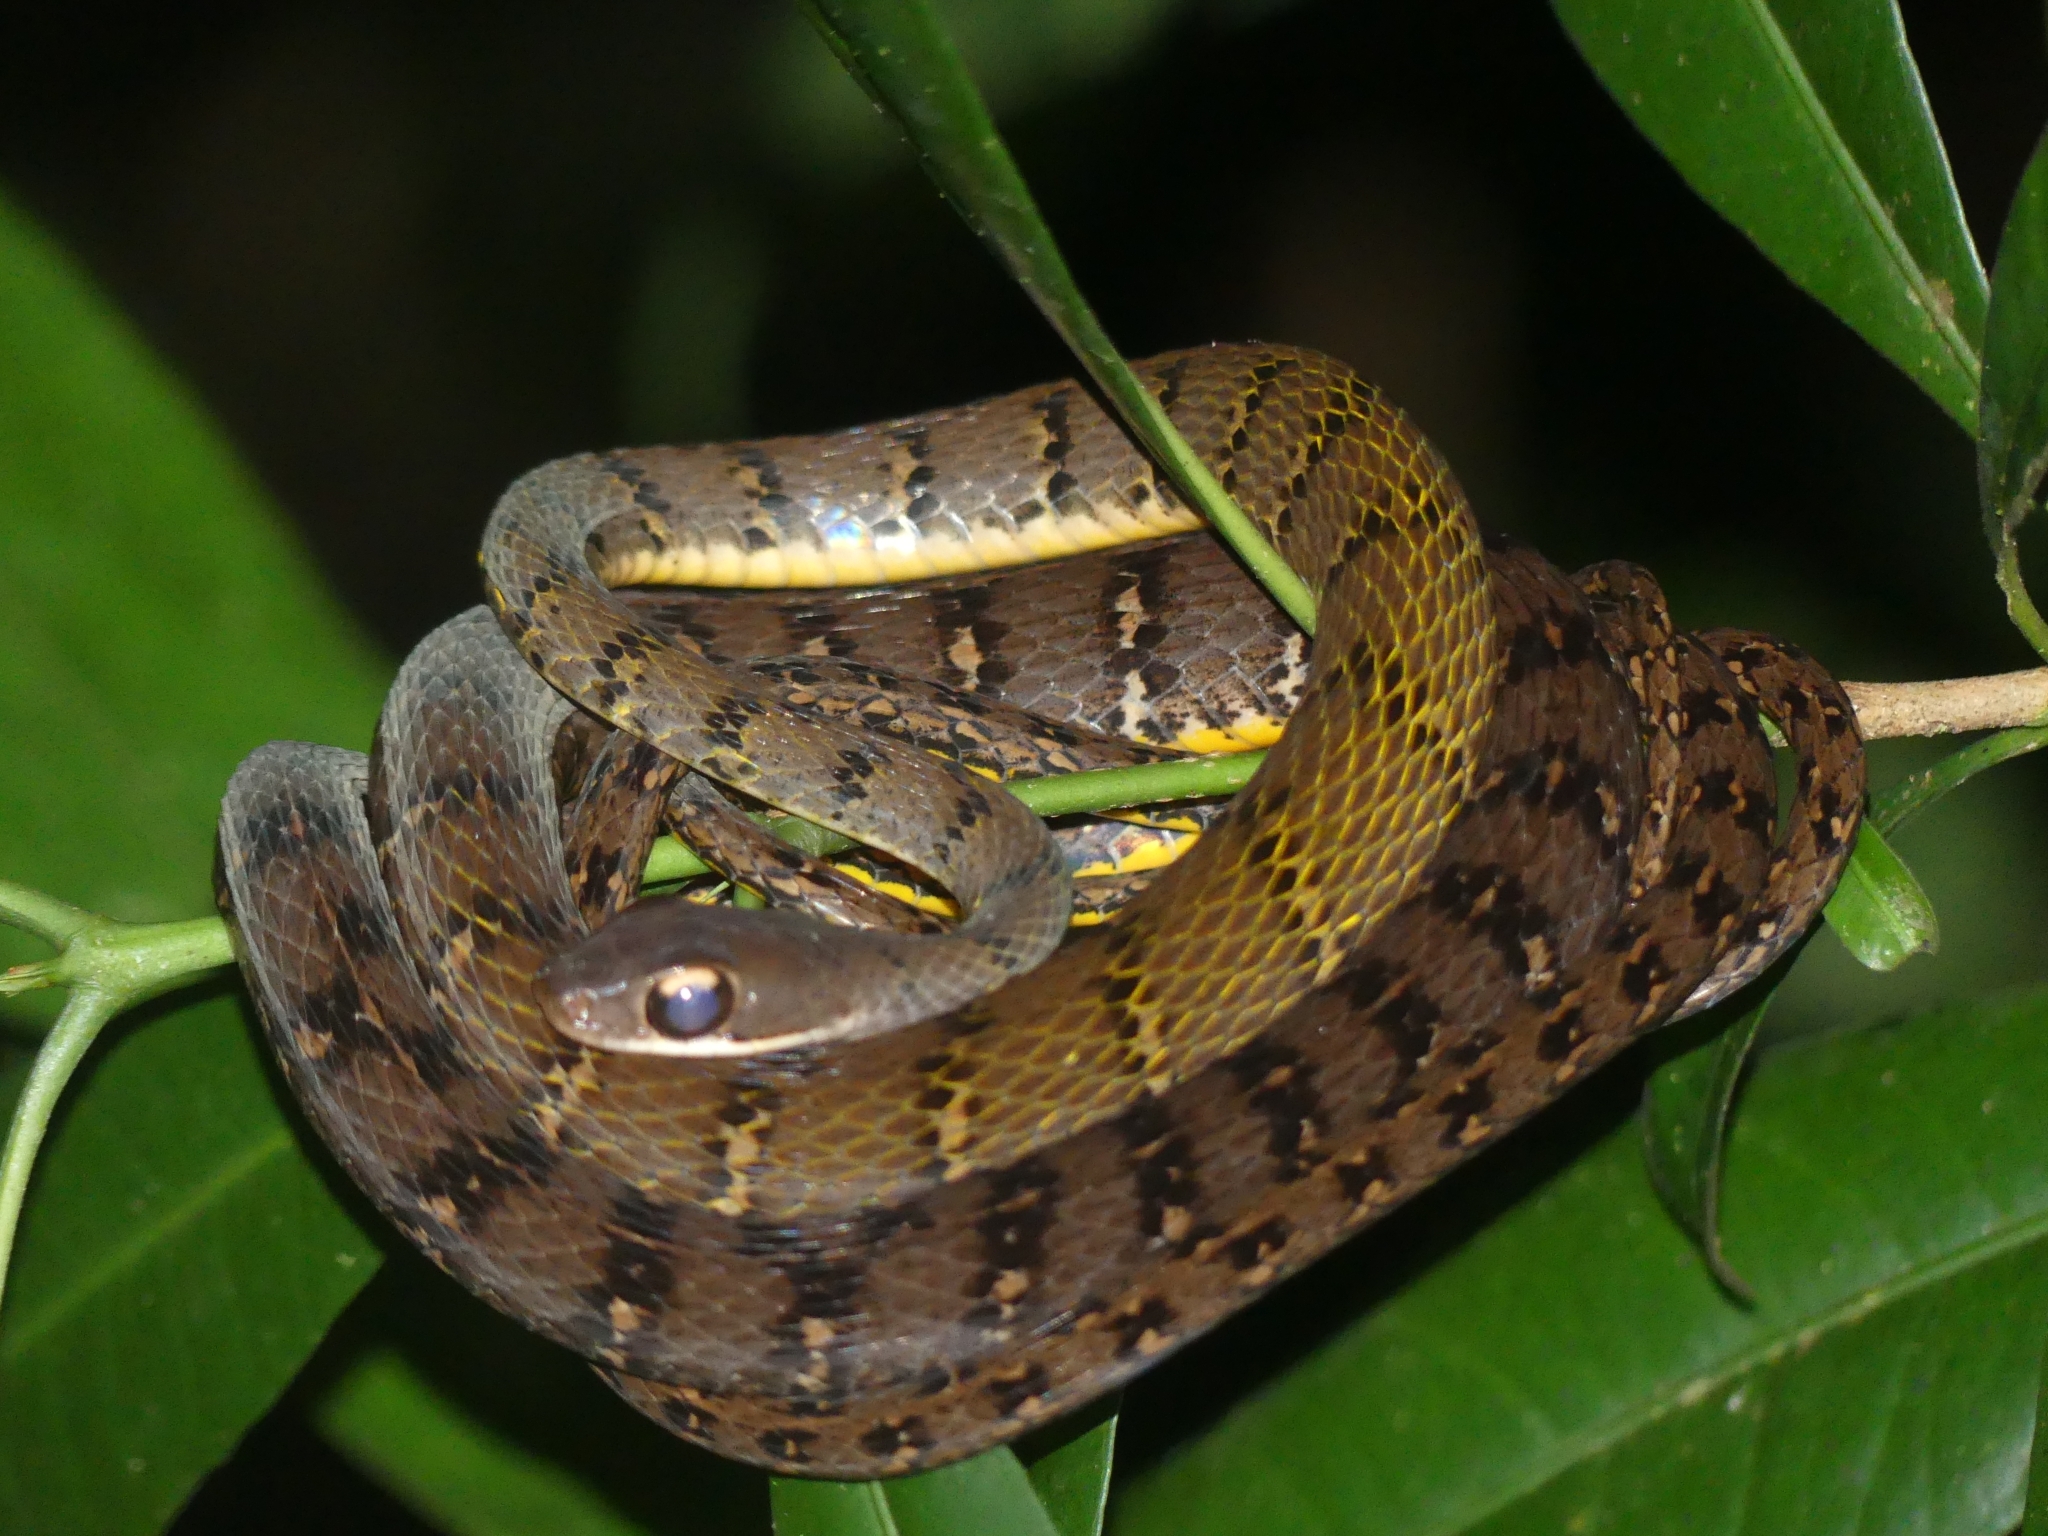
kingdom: Animalia
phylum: Chordata
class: Squamata
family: Colubridae
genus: Dendrophidion
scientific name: Dendrophidion dendrophis
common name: Olive forest racer
